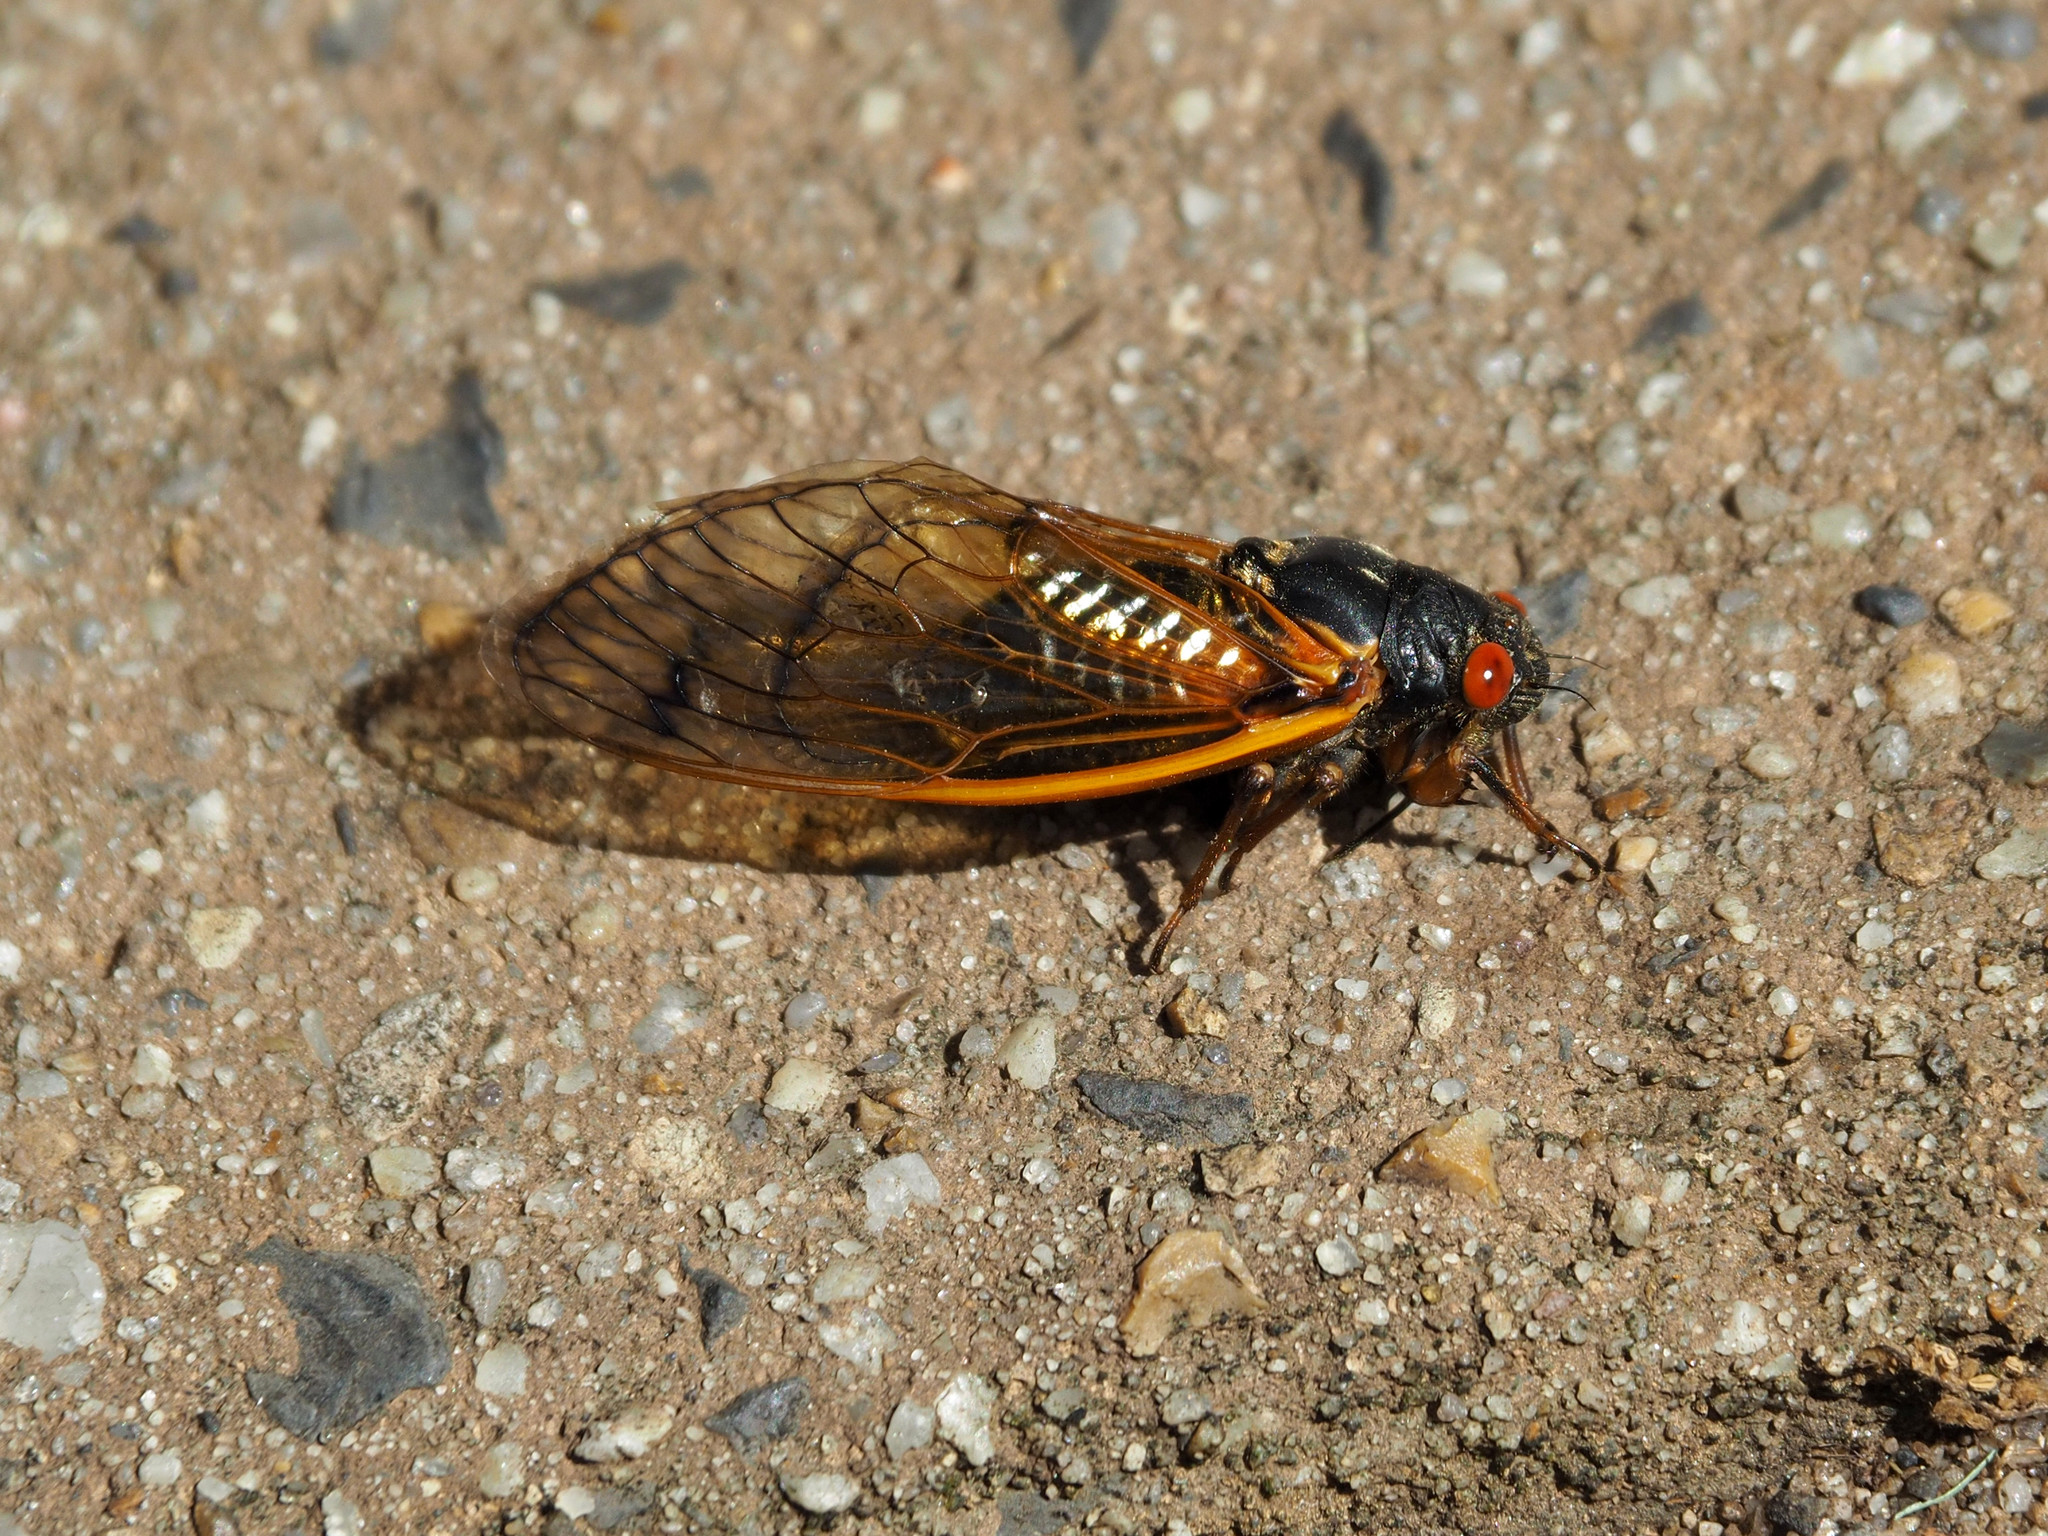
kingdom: Animalia
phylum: Arthropoda
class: Insecta
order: Hemiptera
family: Cicadidae
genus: Magicicada
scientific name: Magicicada cassini
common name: Cassin's 17-year cicada
